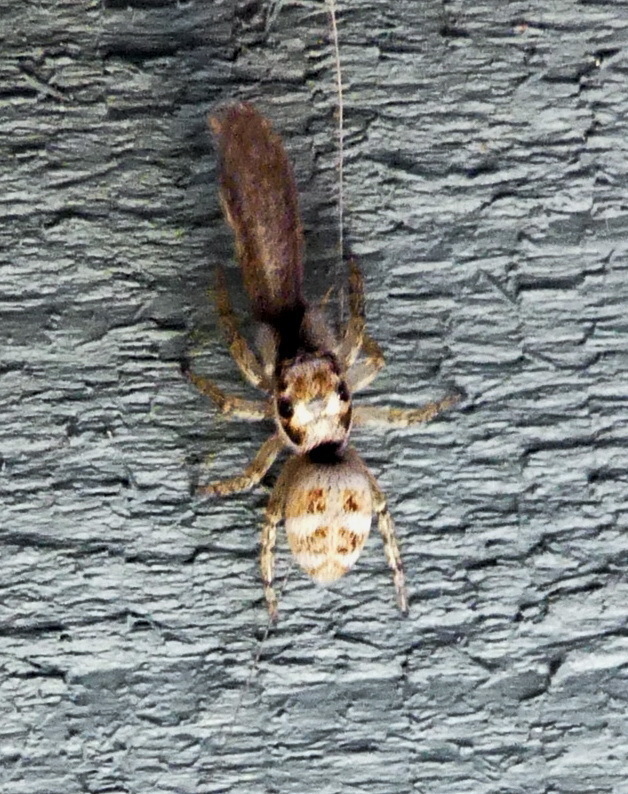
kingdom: Animalia
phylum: Arthropoda
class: Arachnida
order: Araneae
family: Salticidae
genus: Salticus
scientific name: Salticus scenicus
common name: Zebra jumper
